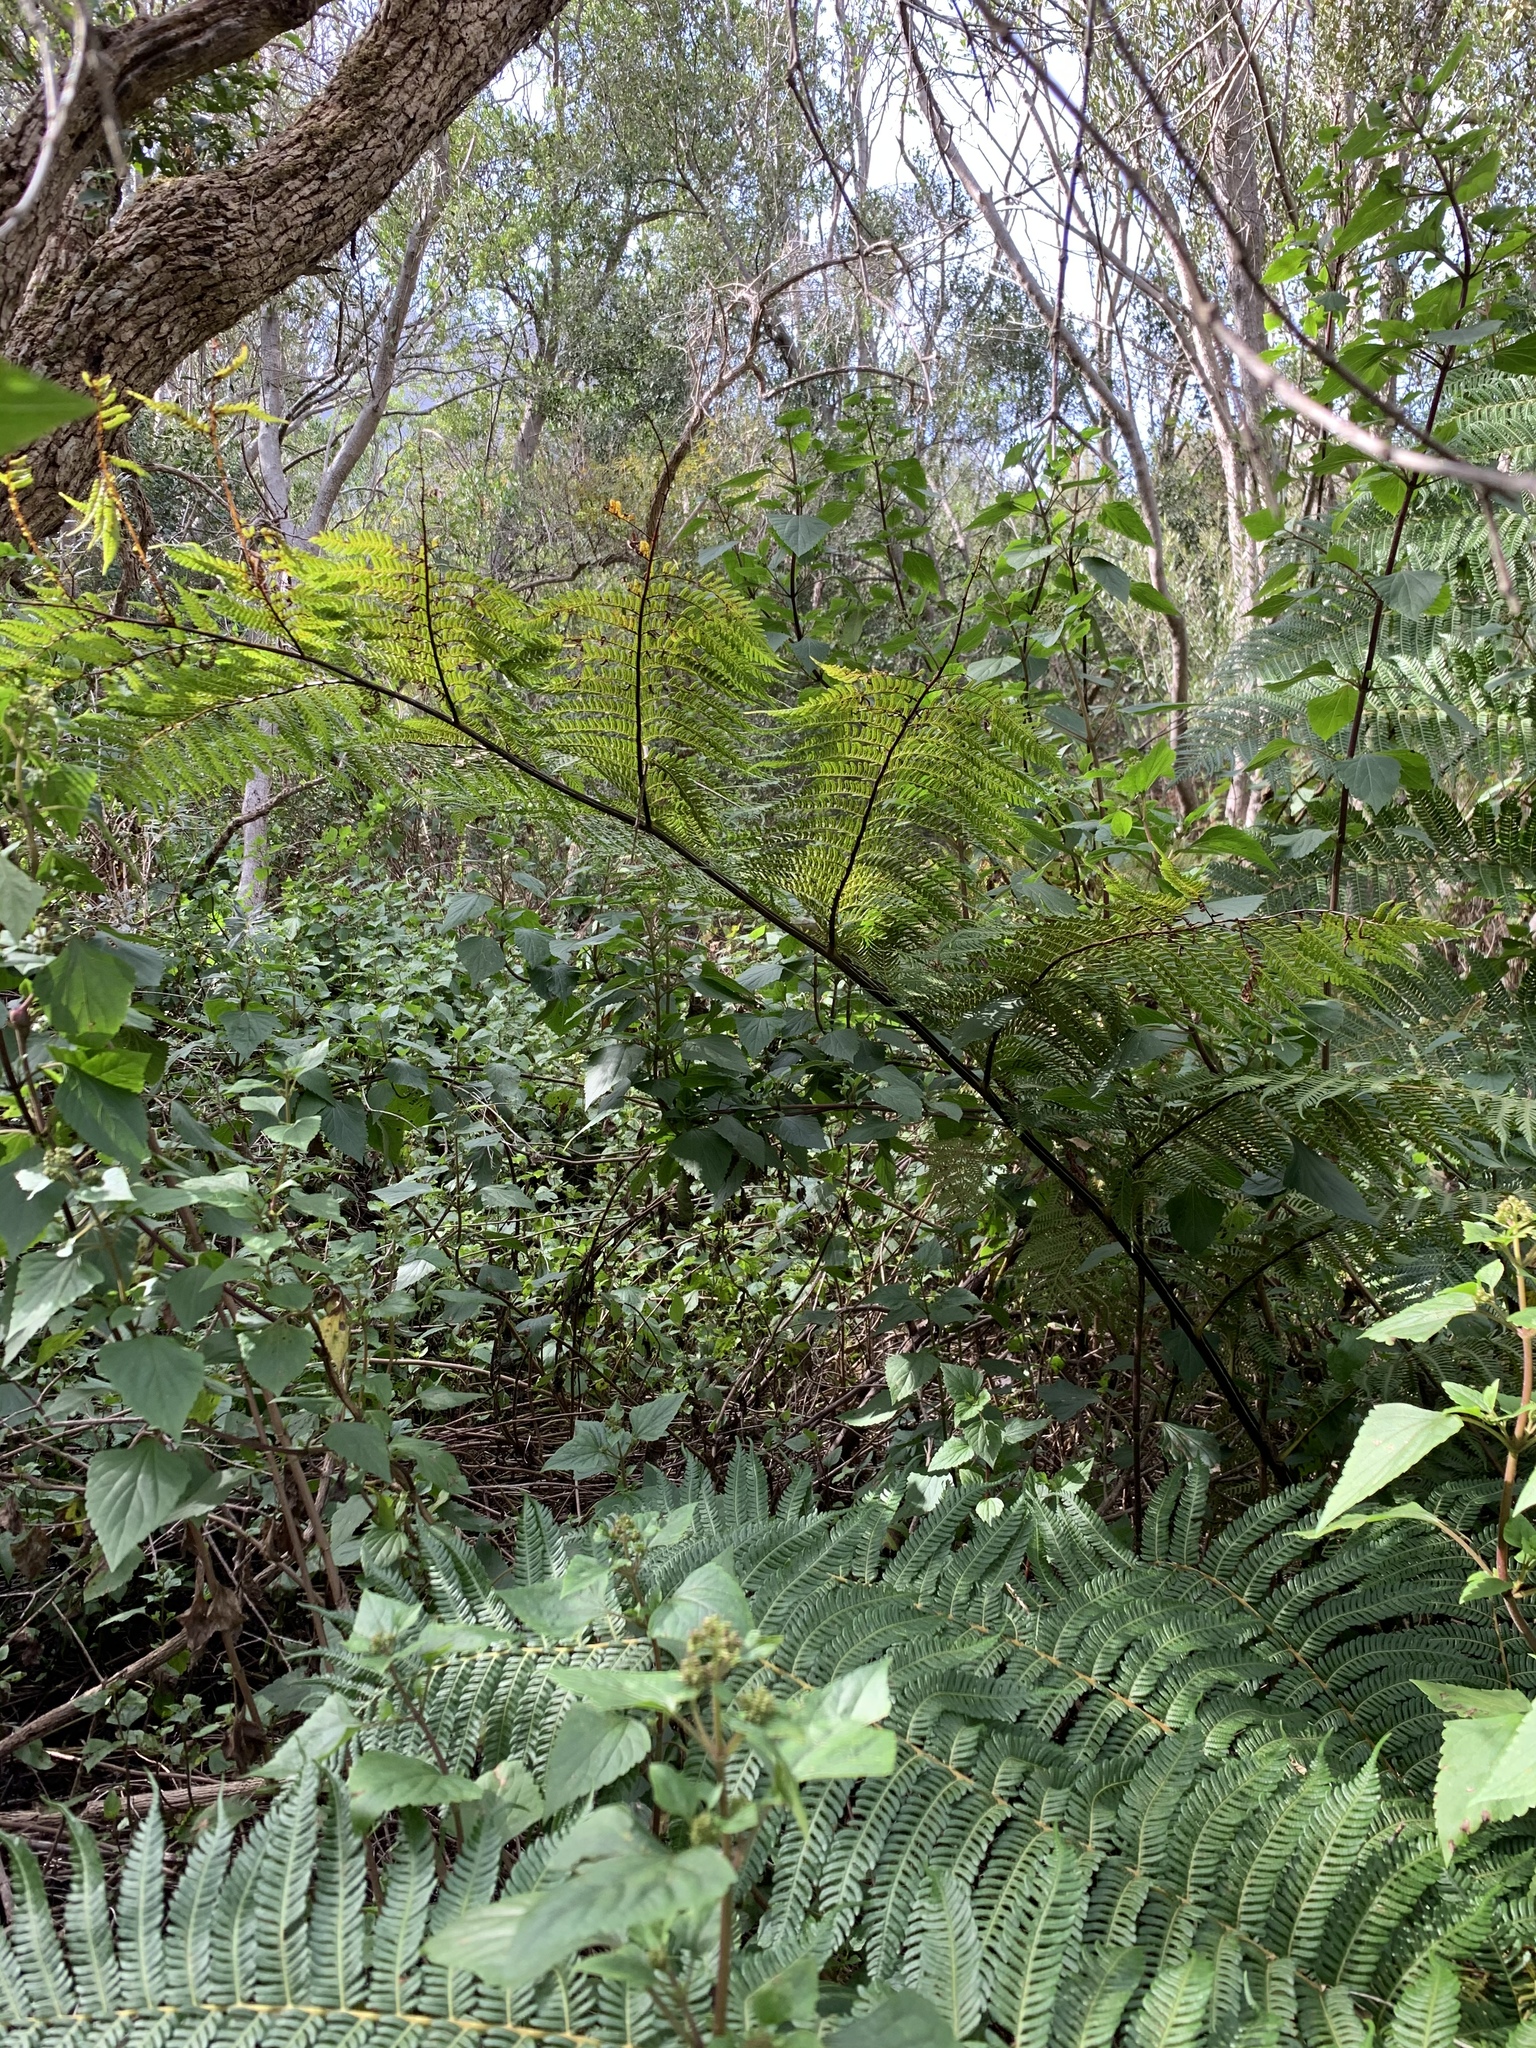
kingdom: Plantae
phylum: Tracheophyta
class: Polypodiopsida
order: Cyatheales
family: Cyatheaceae
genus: Sphaeropteris
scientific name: Sphaeropteris cooperi
